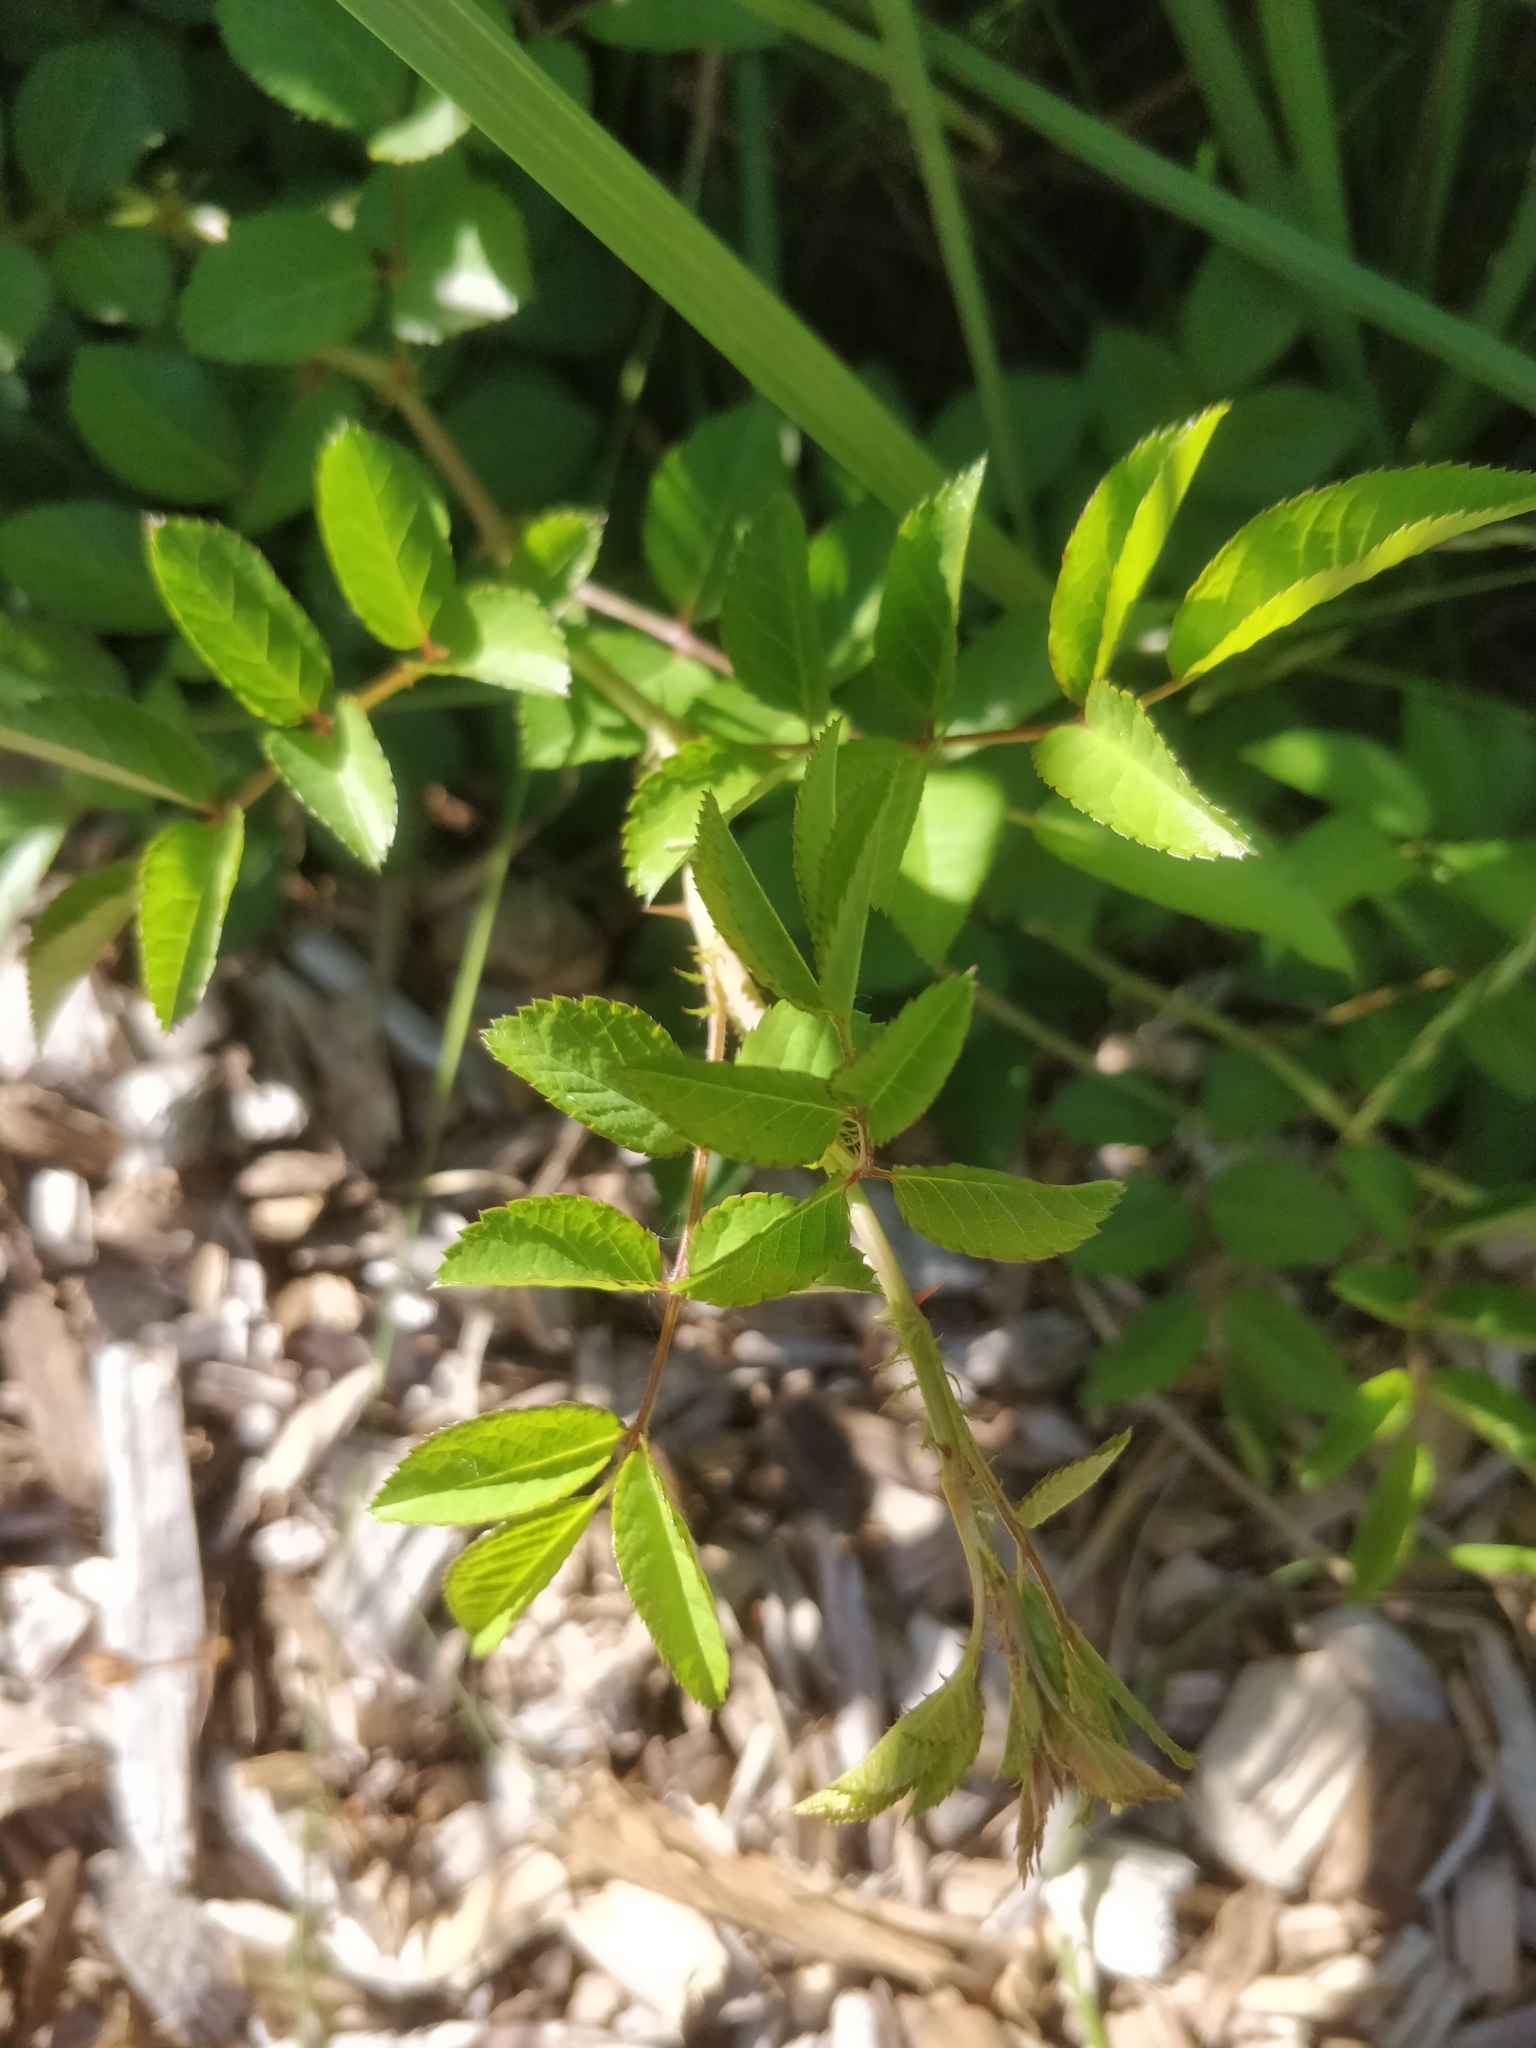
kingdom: Plantae
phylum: Tracheophyta
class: Magnoliopsida
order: Rosales
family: Rosaceae
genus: Rosa
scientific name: Rosa multiflora
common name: Multiflora rose
